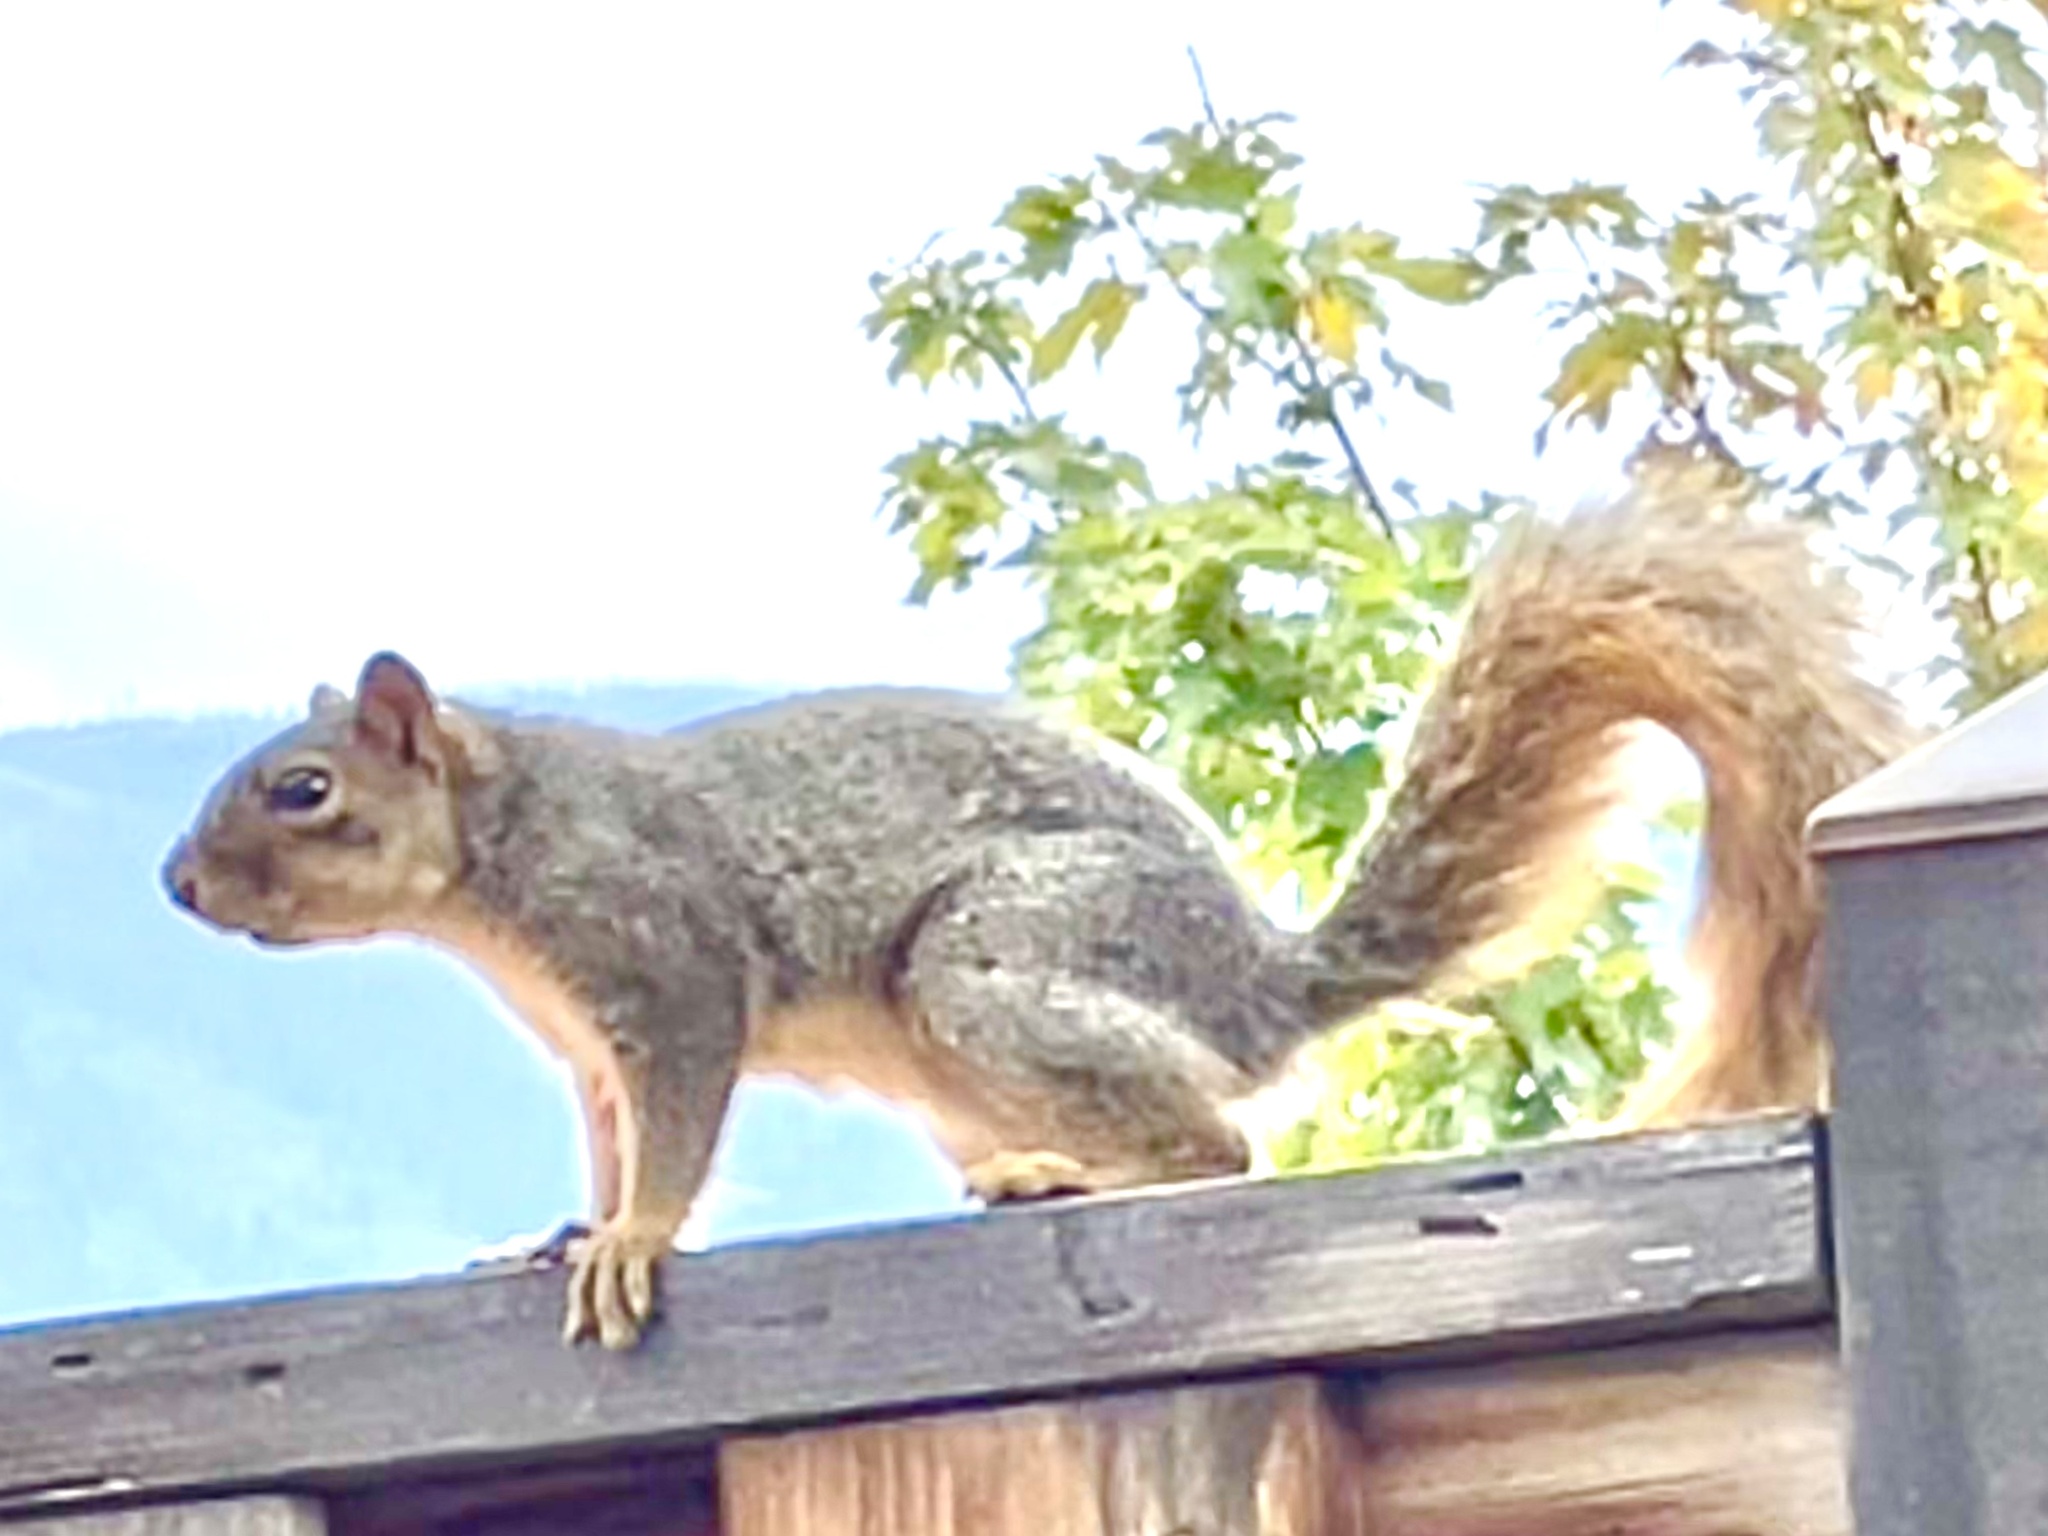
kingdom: Animalia
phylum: Chordata
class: Mammalia
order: Rodentia
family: Sciuridae
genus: Sciurus
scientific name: Sciurus niger
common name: Fox squirrel
